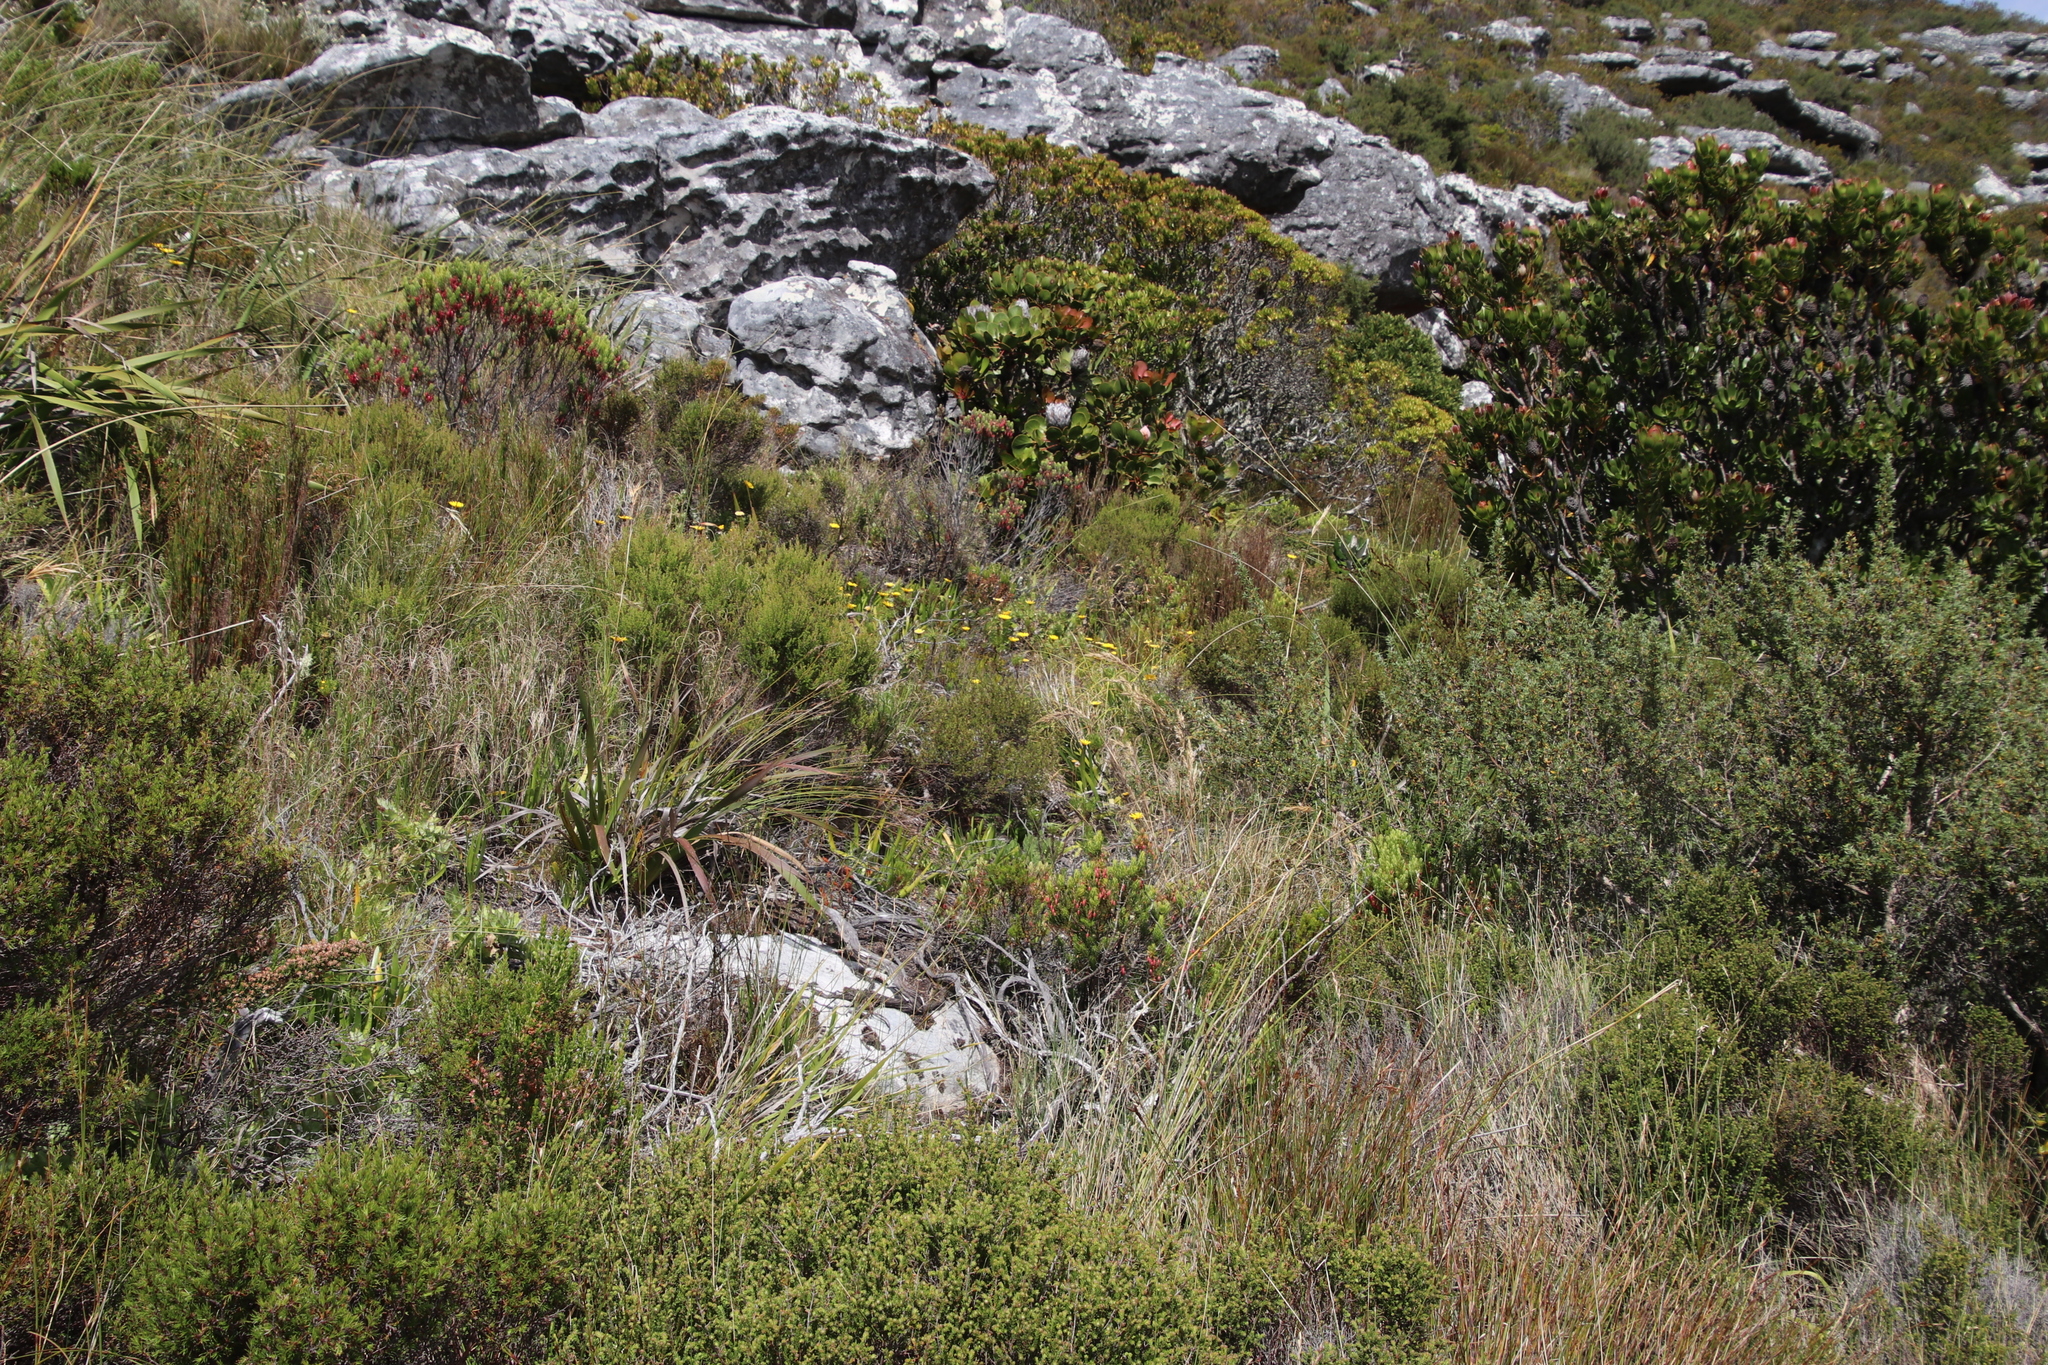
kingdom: Plantae
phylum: Tracheophyta
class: Magnoliopsida
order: Asterales
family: Asteraceae
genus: Euryops
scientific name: Euryops abrotanifolius
